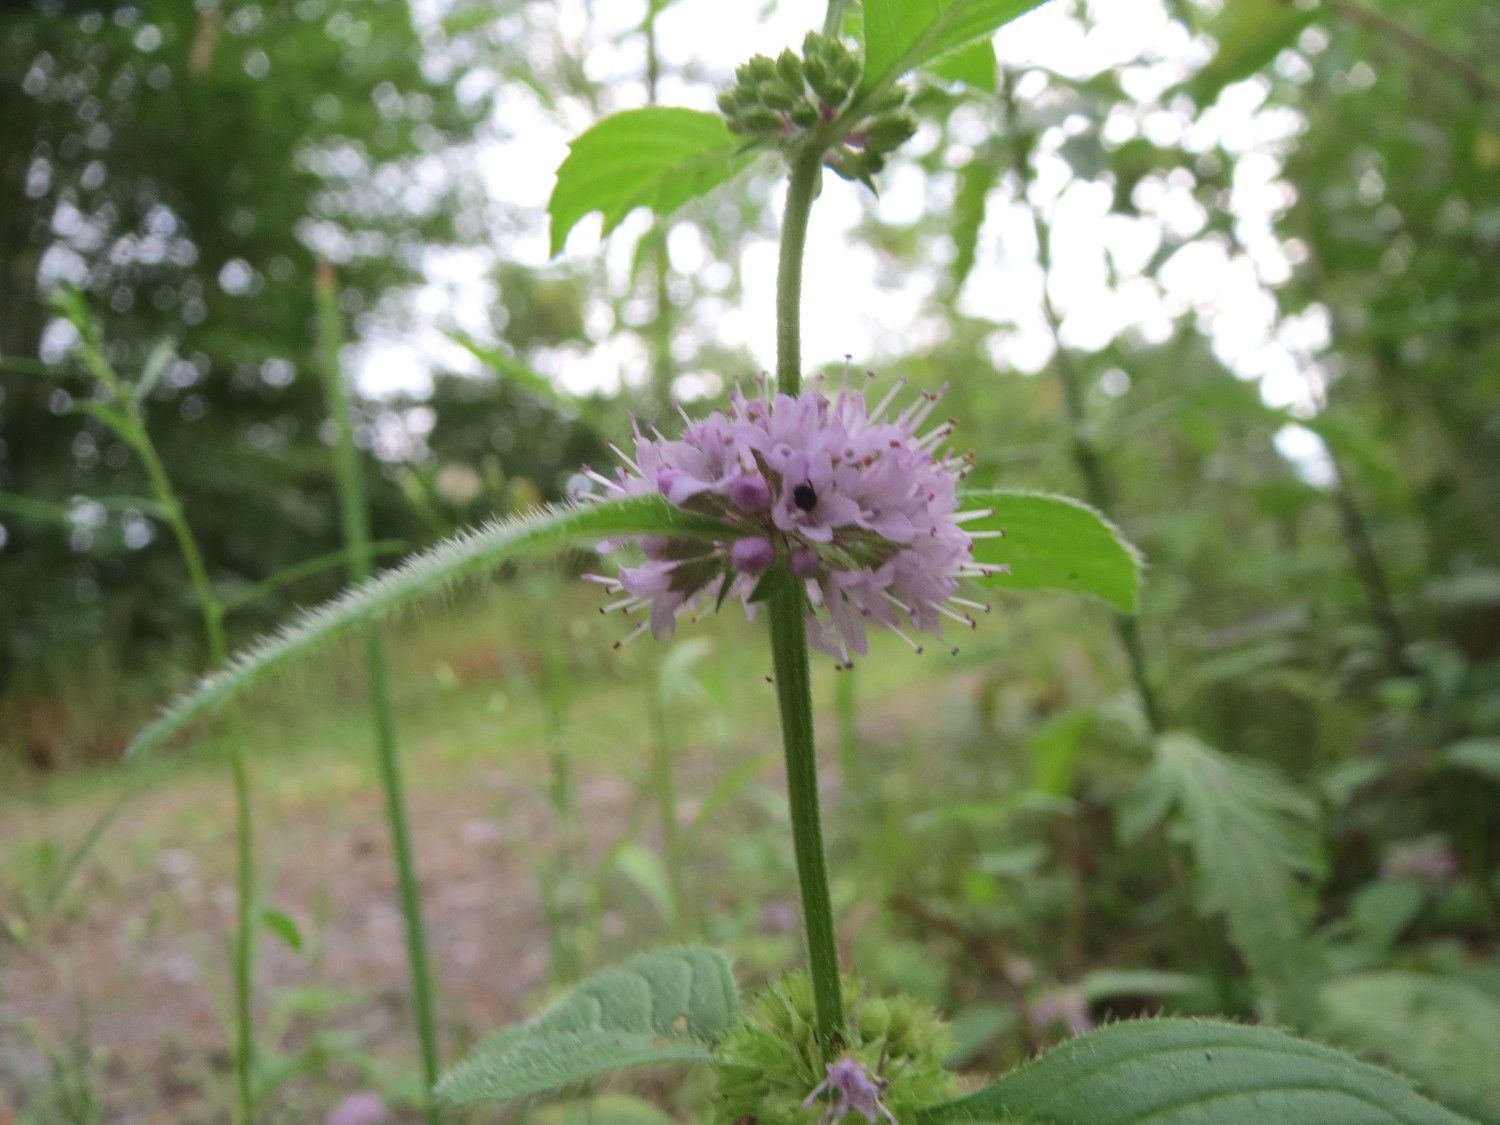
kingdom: Plantae
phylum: Tracheophyta
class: Magnoliopsida
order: Lamiales
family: Lamiaceae
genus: Mentha
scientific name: Mentha arvensis
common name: Corn mint
